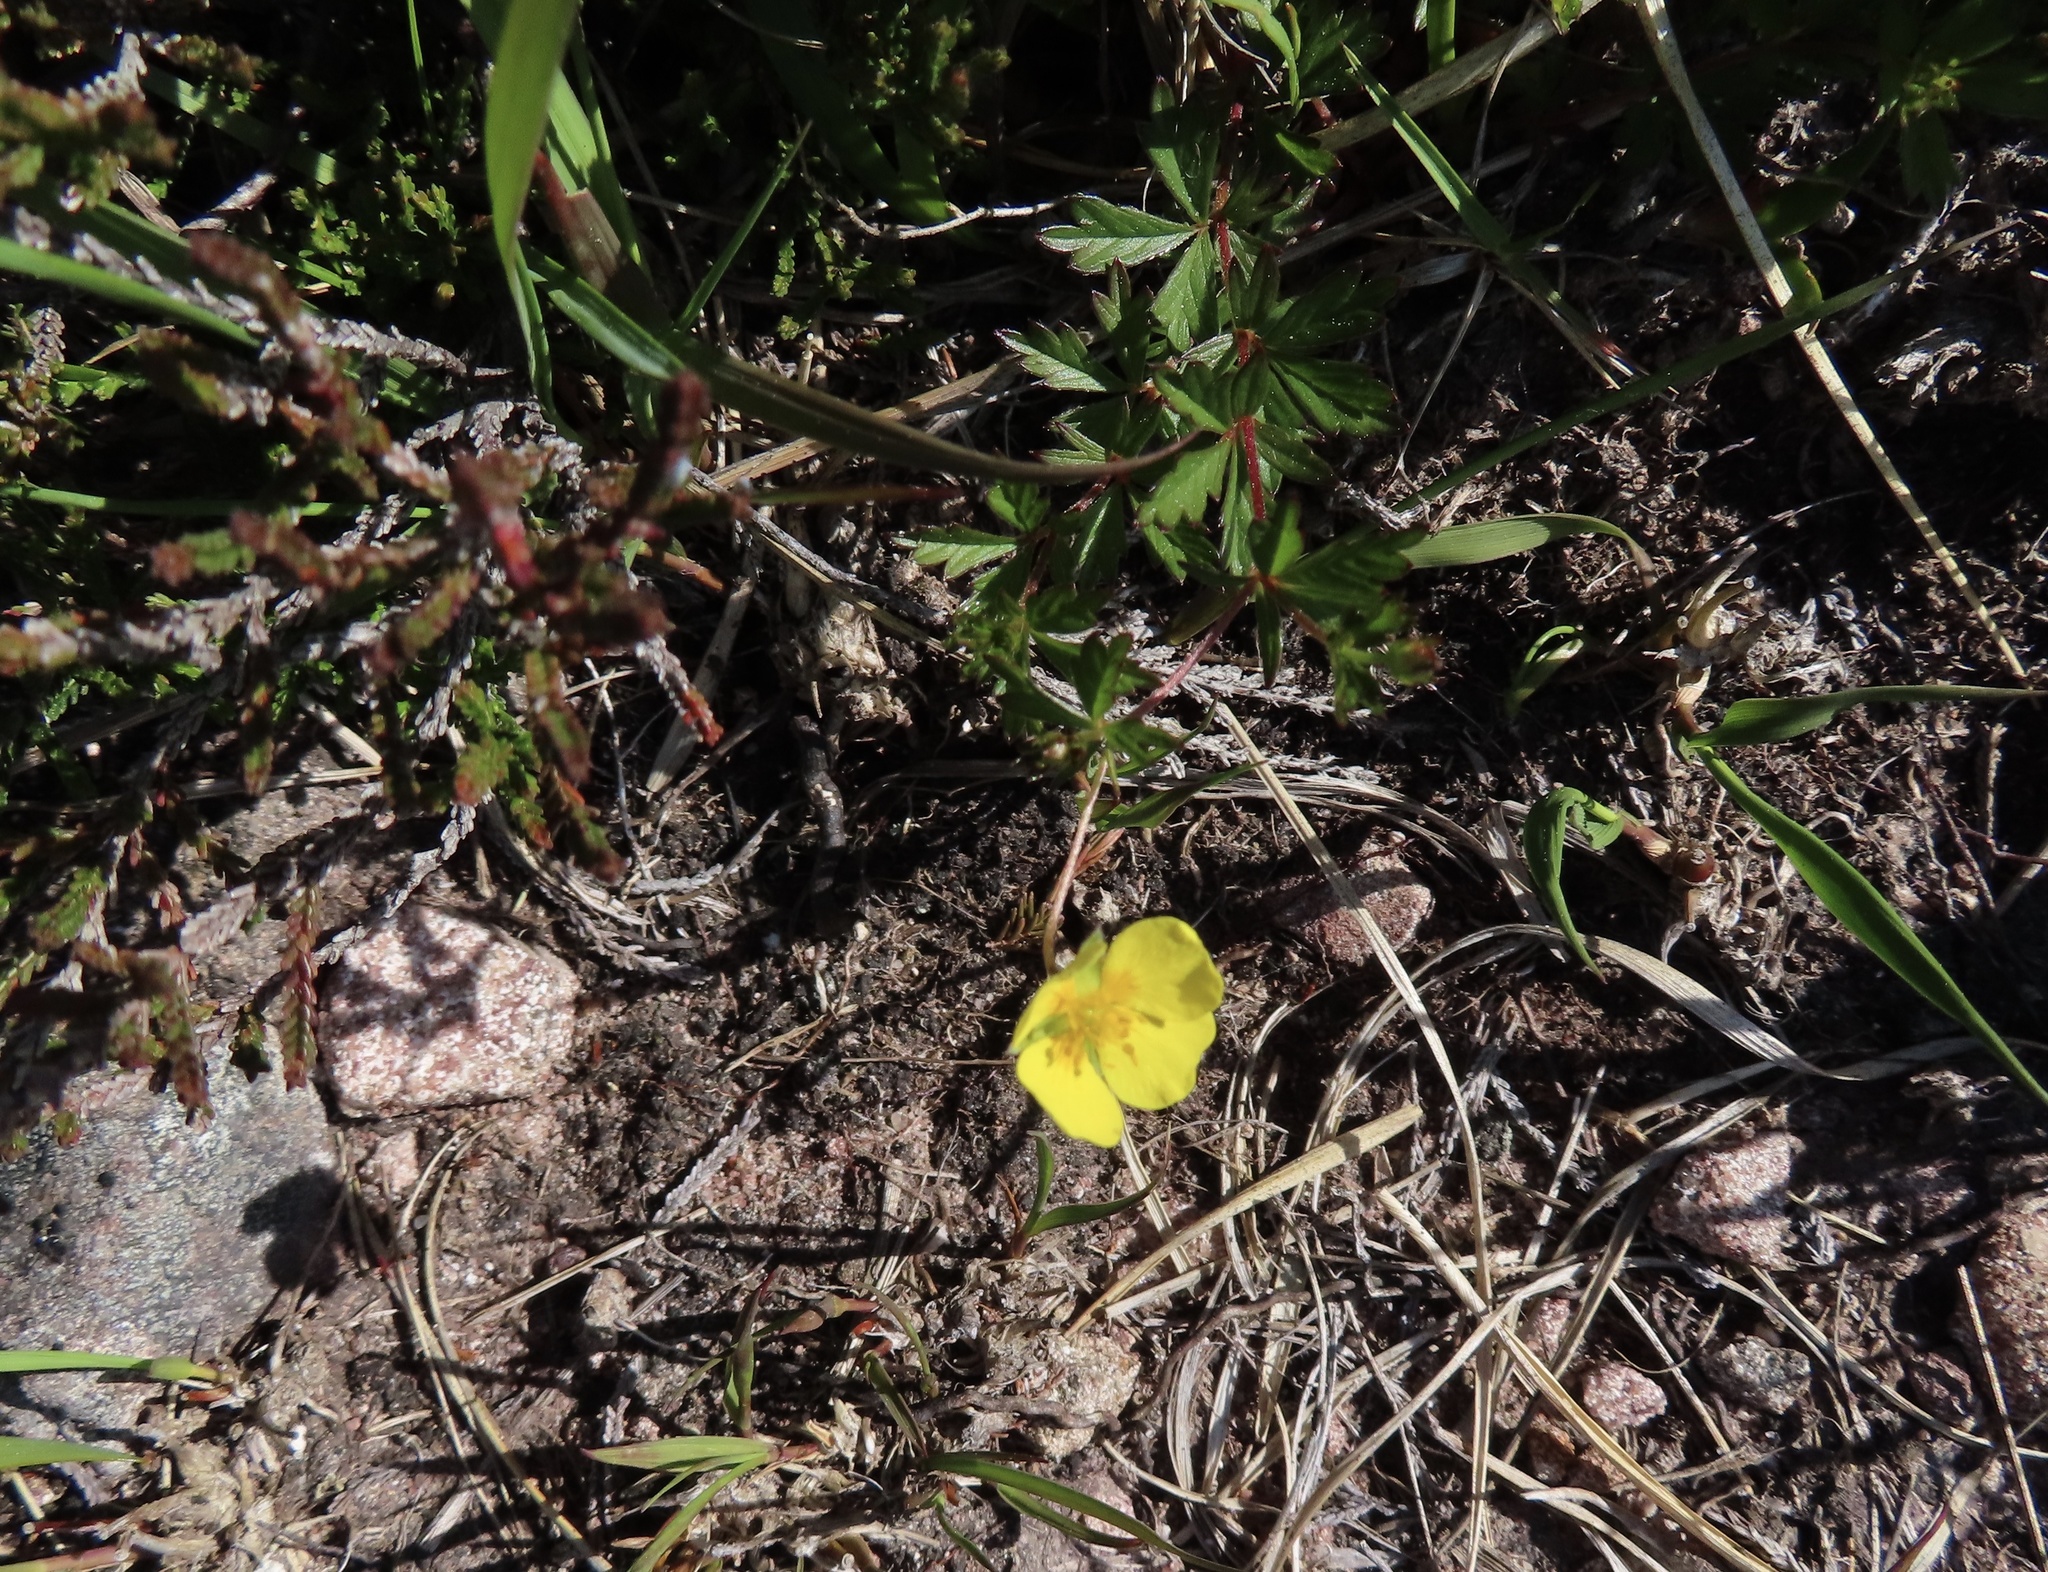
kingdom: Plantae
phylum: Tracheophyta
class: Magnoliopsida
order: Rosales
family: Rosaceae
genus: Potentilla
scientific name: Potentilla erecta
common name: Tormentil
